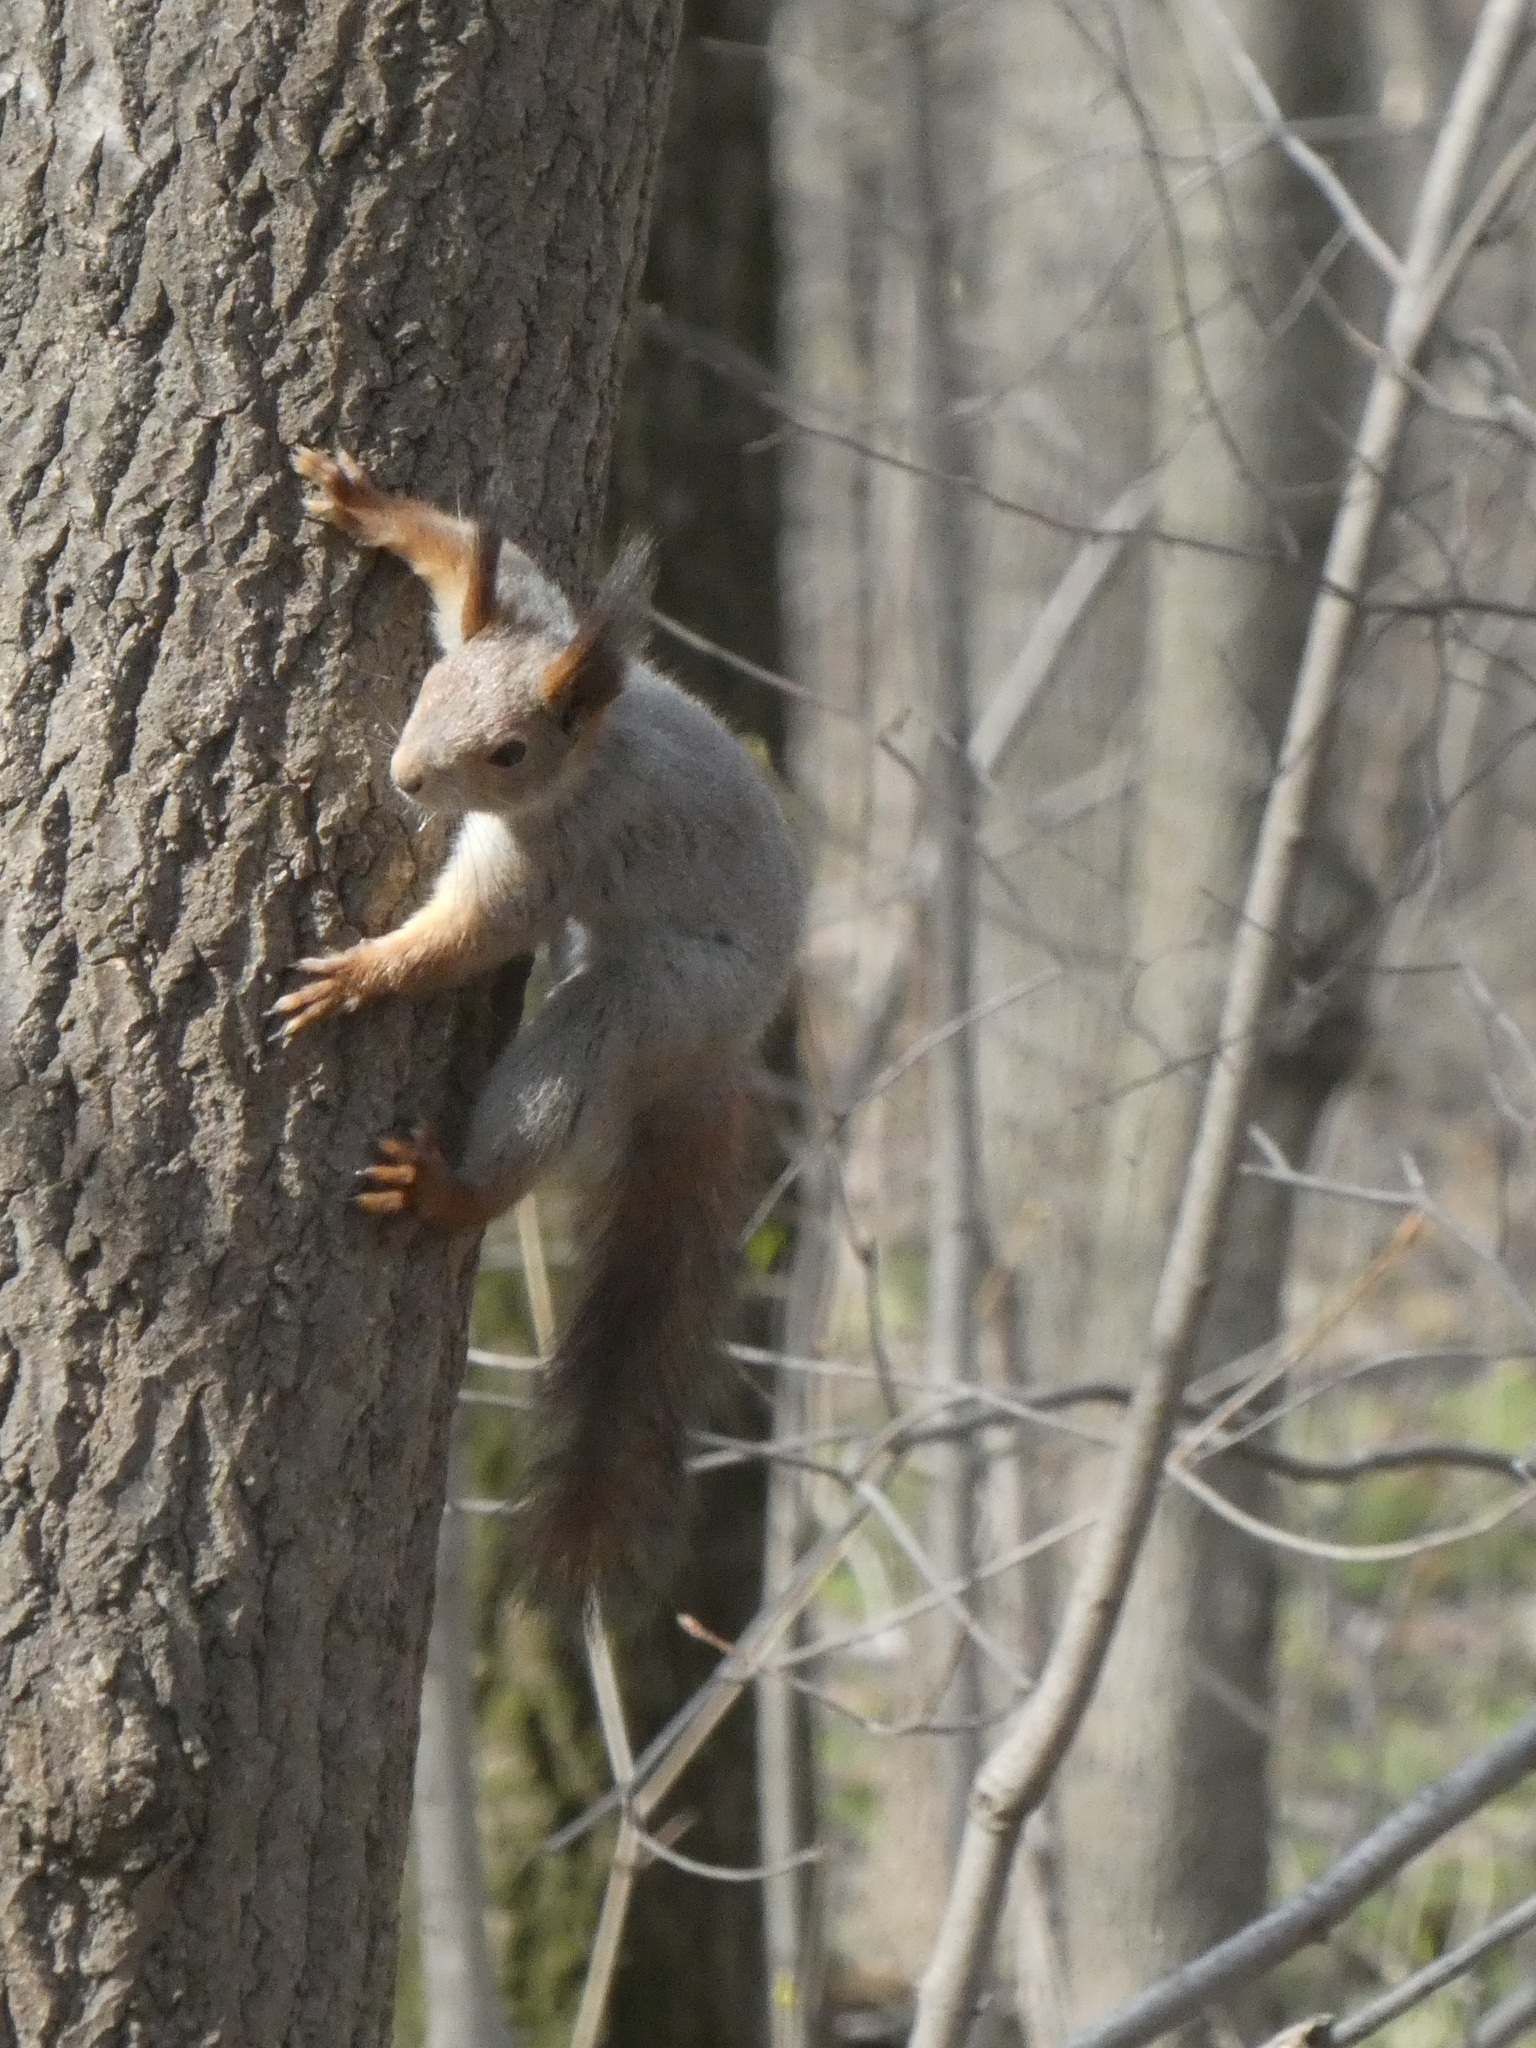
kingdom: Animalia
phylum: Chordata
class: Mammalia
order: Rodentia
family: Sciuridae
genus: Sciurus
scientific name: Sciurus vulgaris
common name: Eurasian red squirrel
